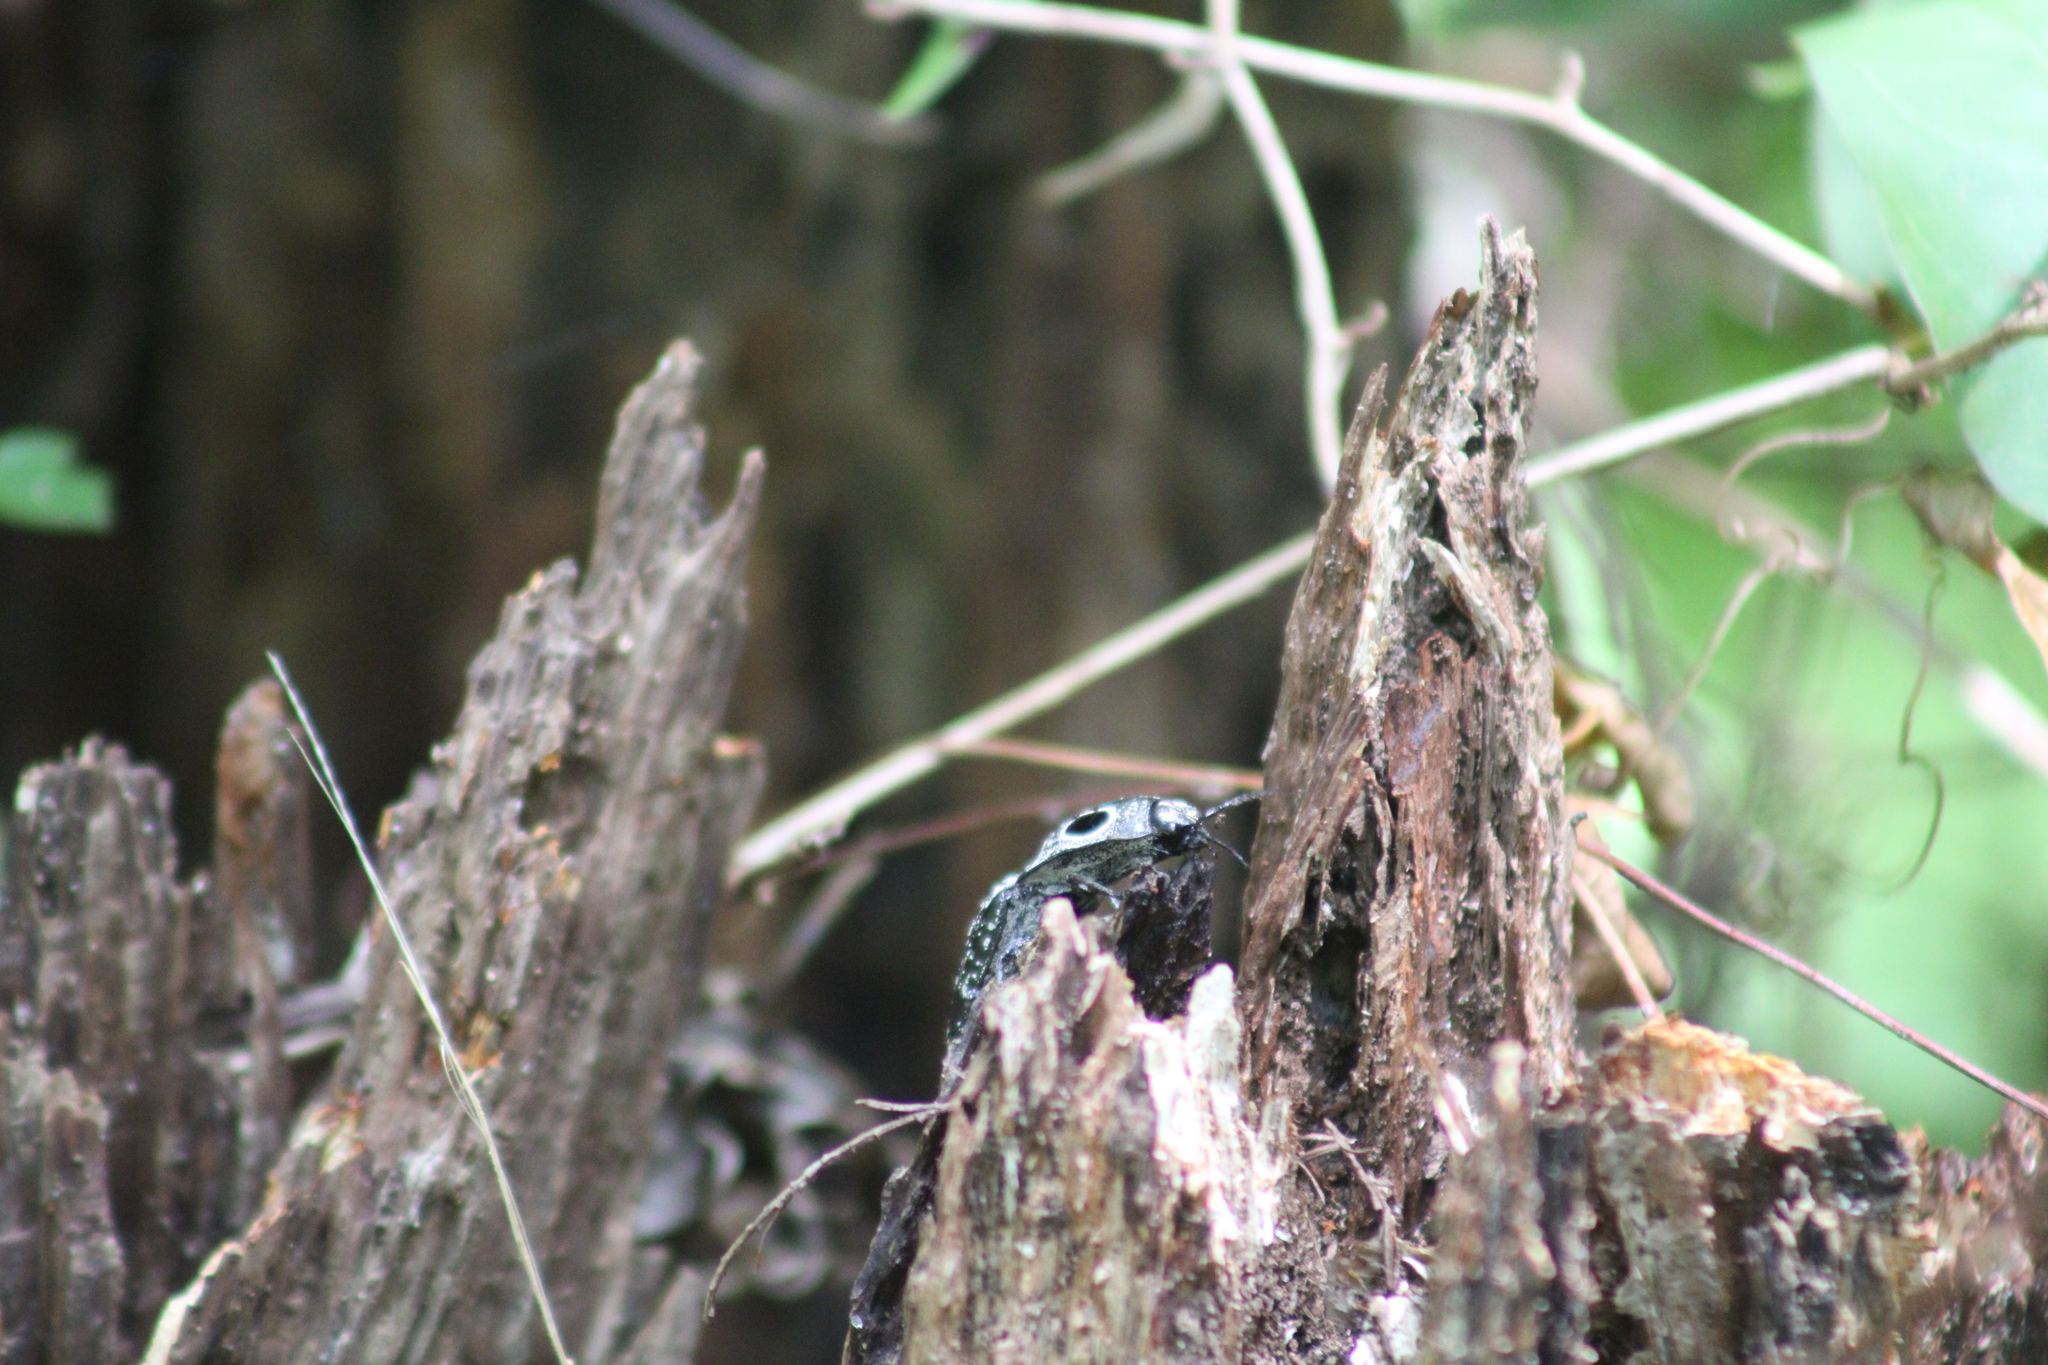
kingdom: Animalia
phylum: Arthropoda
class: Insecta
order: Coleoptera
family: Elateridae
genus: Alaus
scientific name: Alaus oculatus
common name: Eastern eyed click beetle
